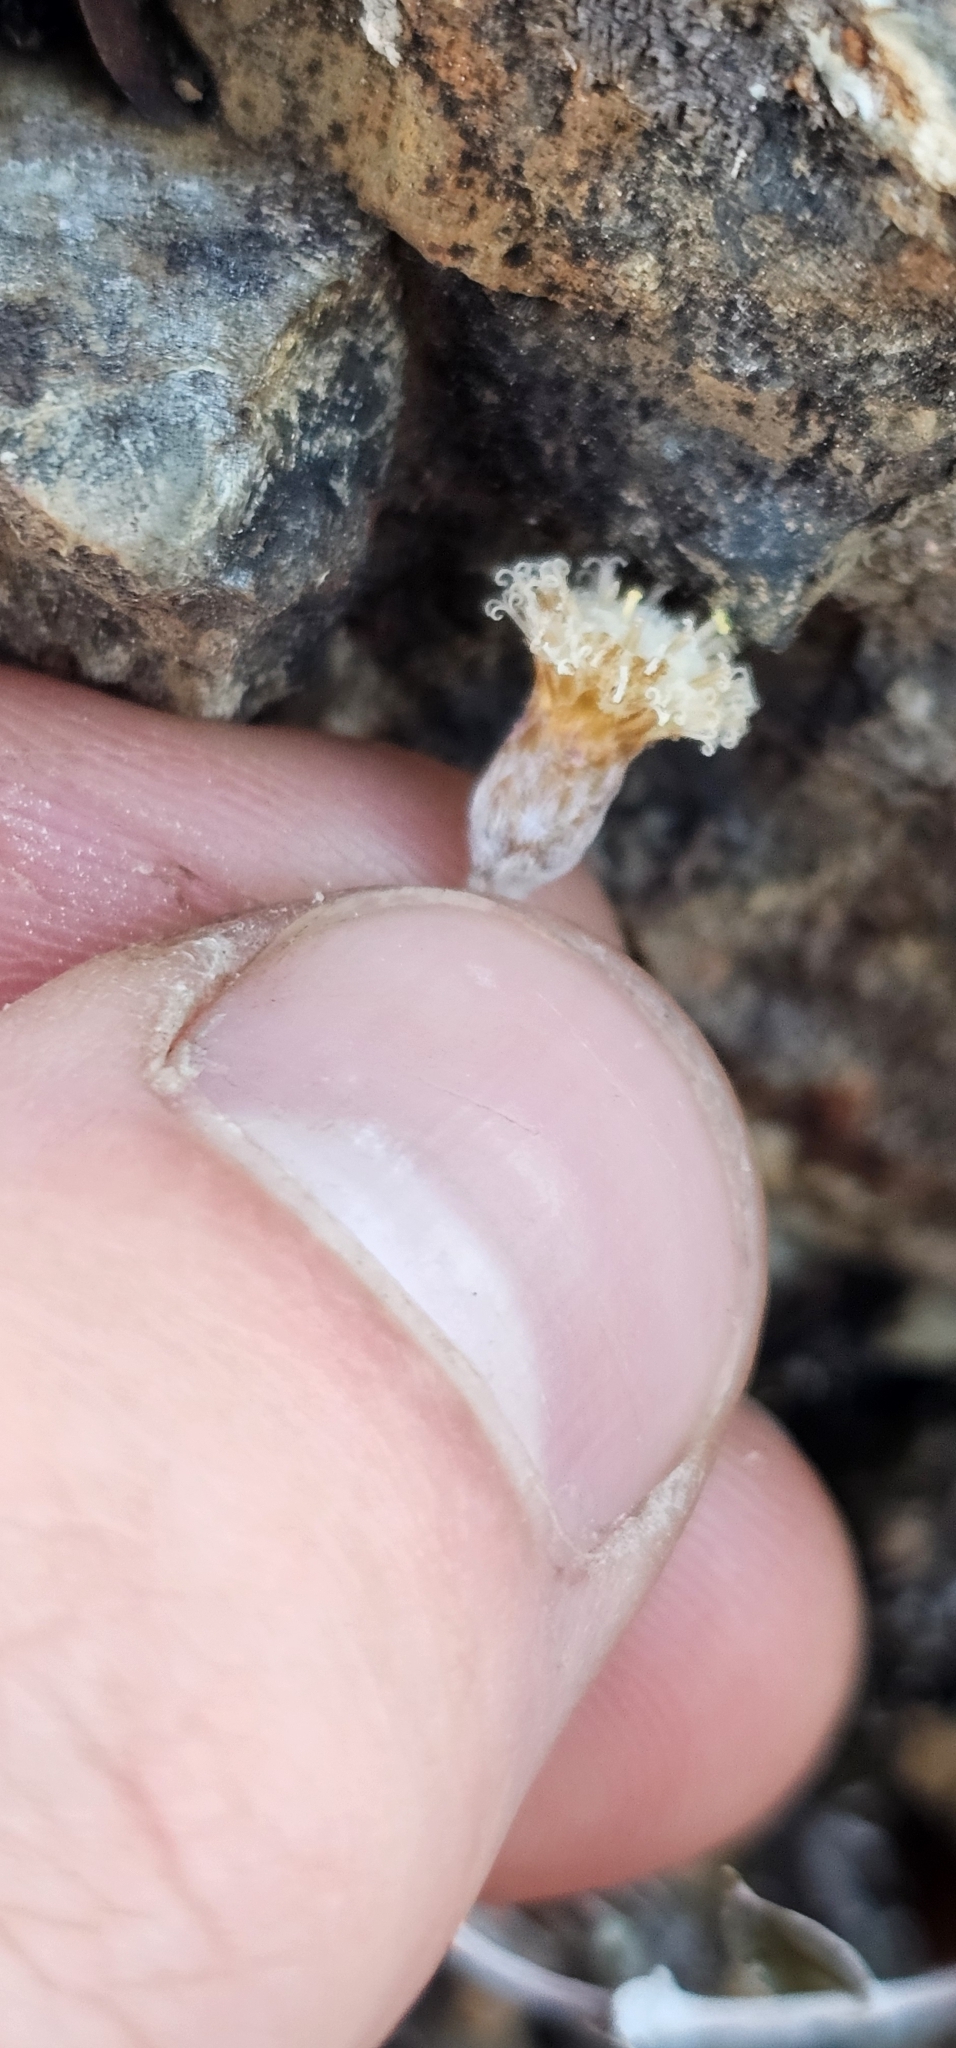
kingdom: Plantae
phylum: Tracheophyta
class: Magnoliopsida
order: Asterales
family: Asteraceae
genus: Helichrysum
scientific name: Helichrysum filicaule
